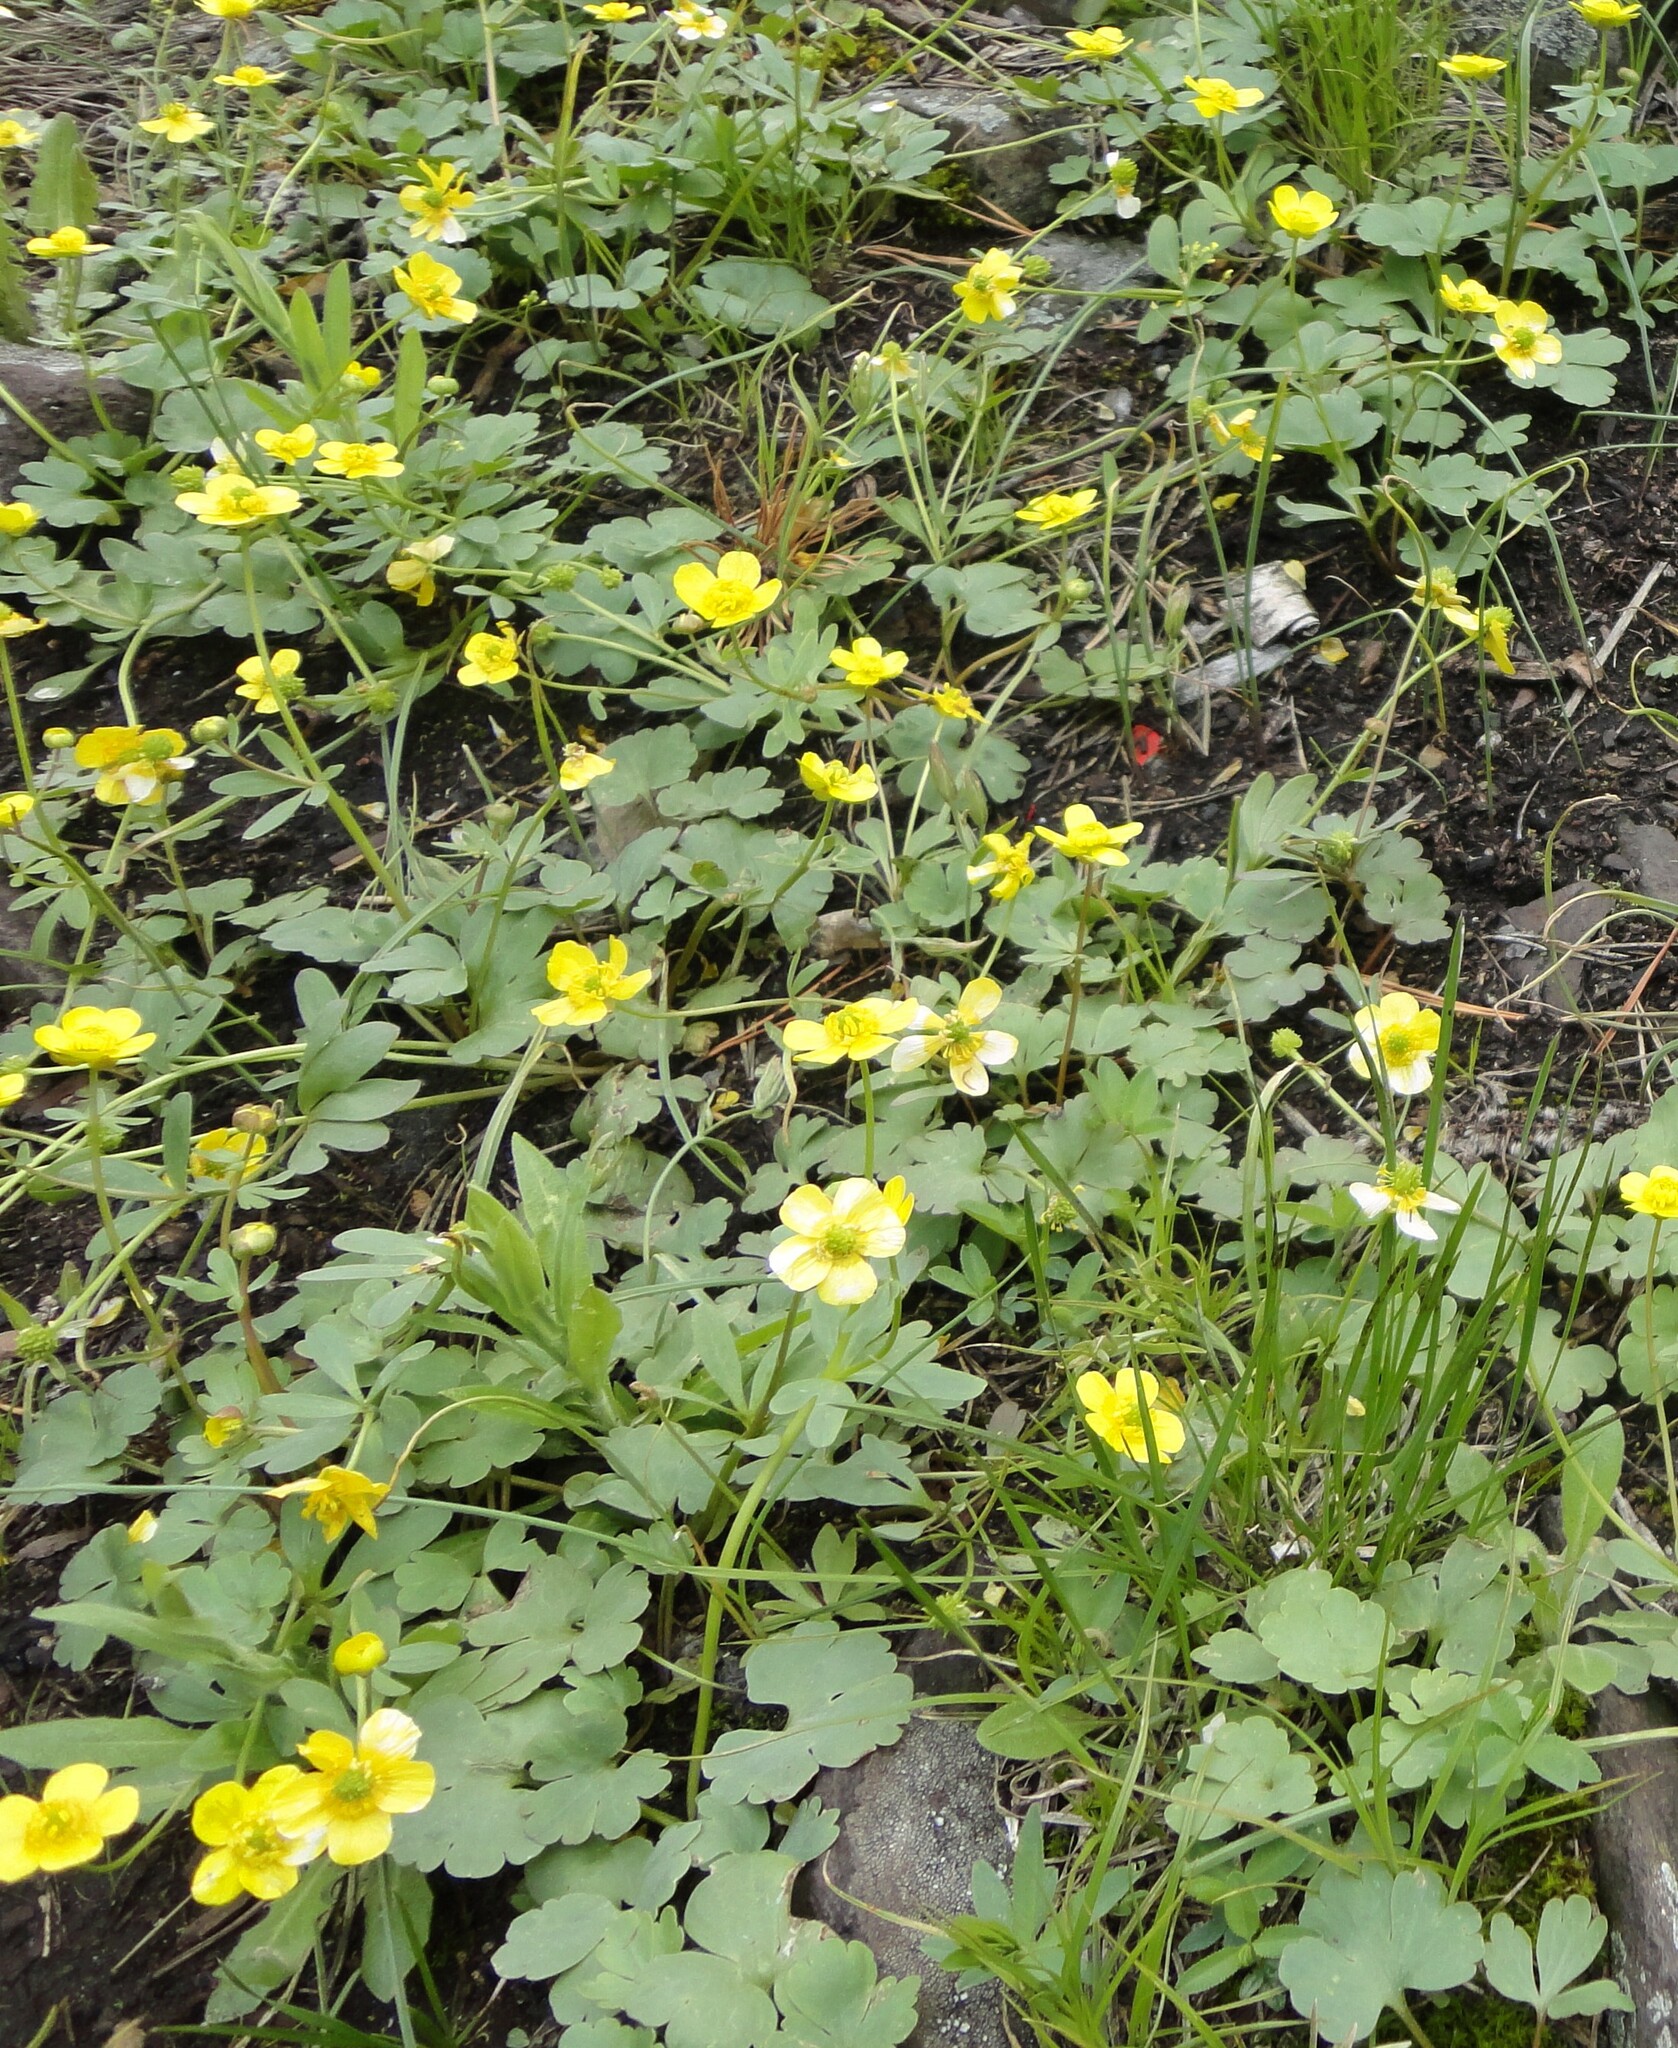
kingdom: Plantae
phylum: Tracheophyta
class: Magnoliopsida
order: Ranunculales
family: Ranunculaceae
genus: Ranunculus
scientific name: Ranunculus polyrhizos
